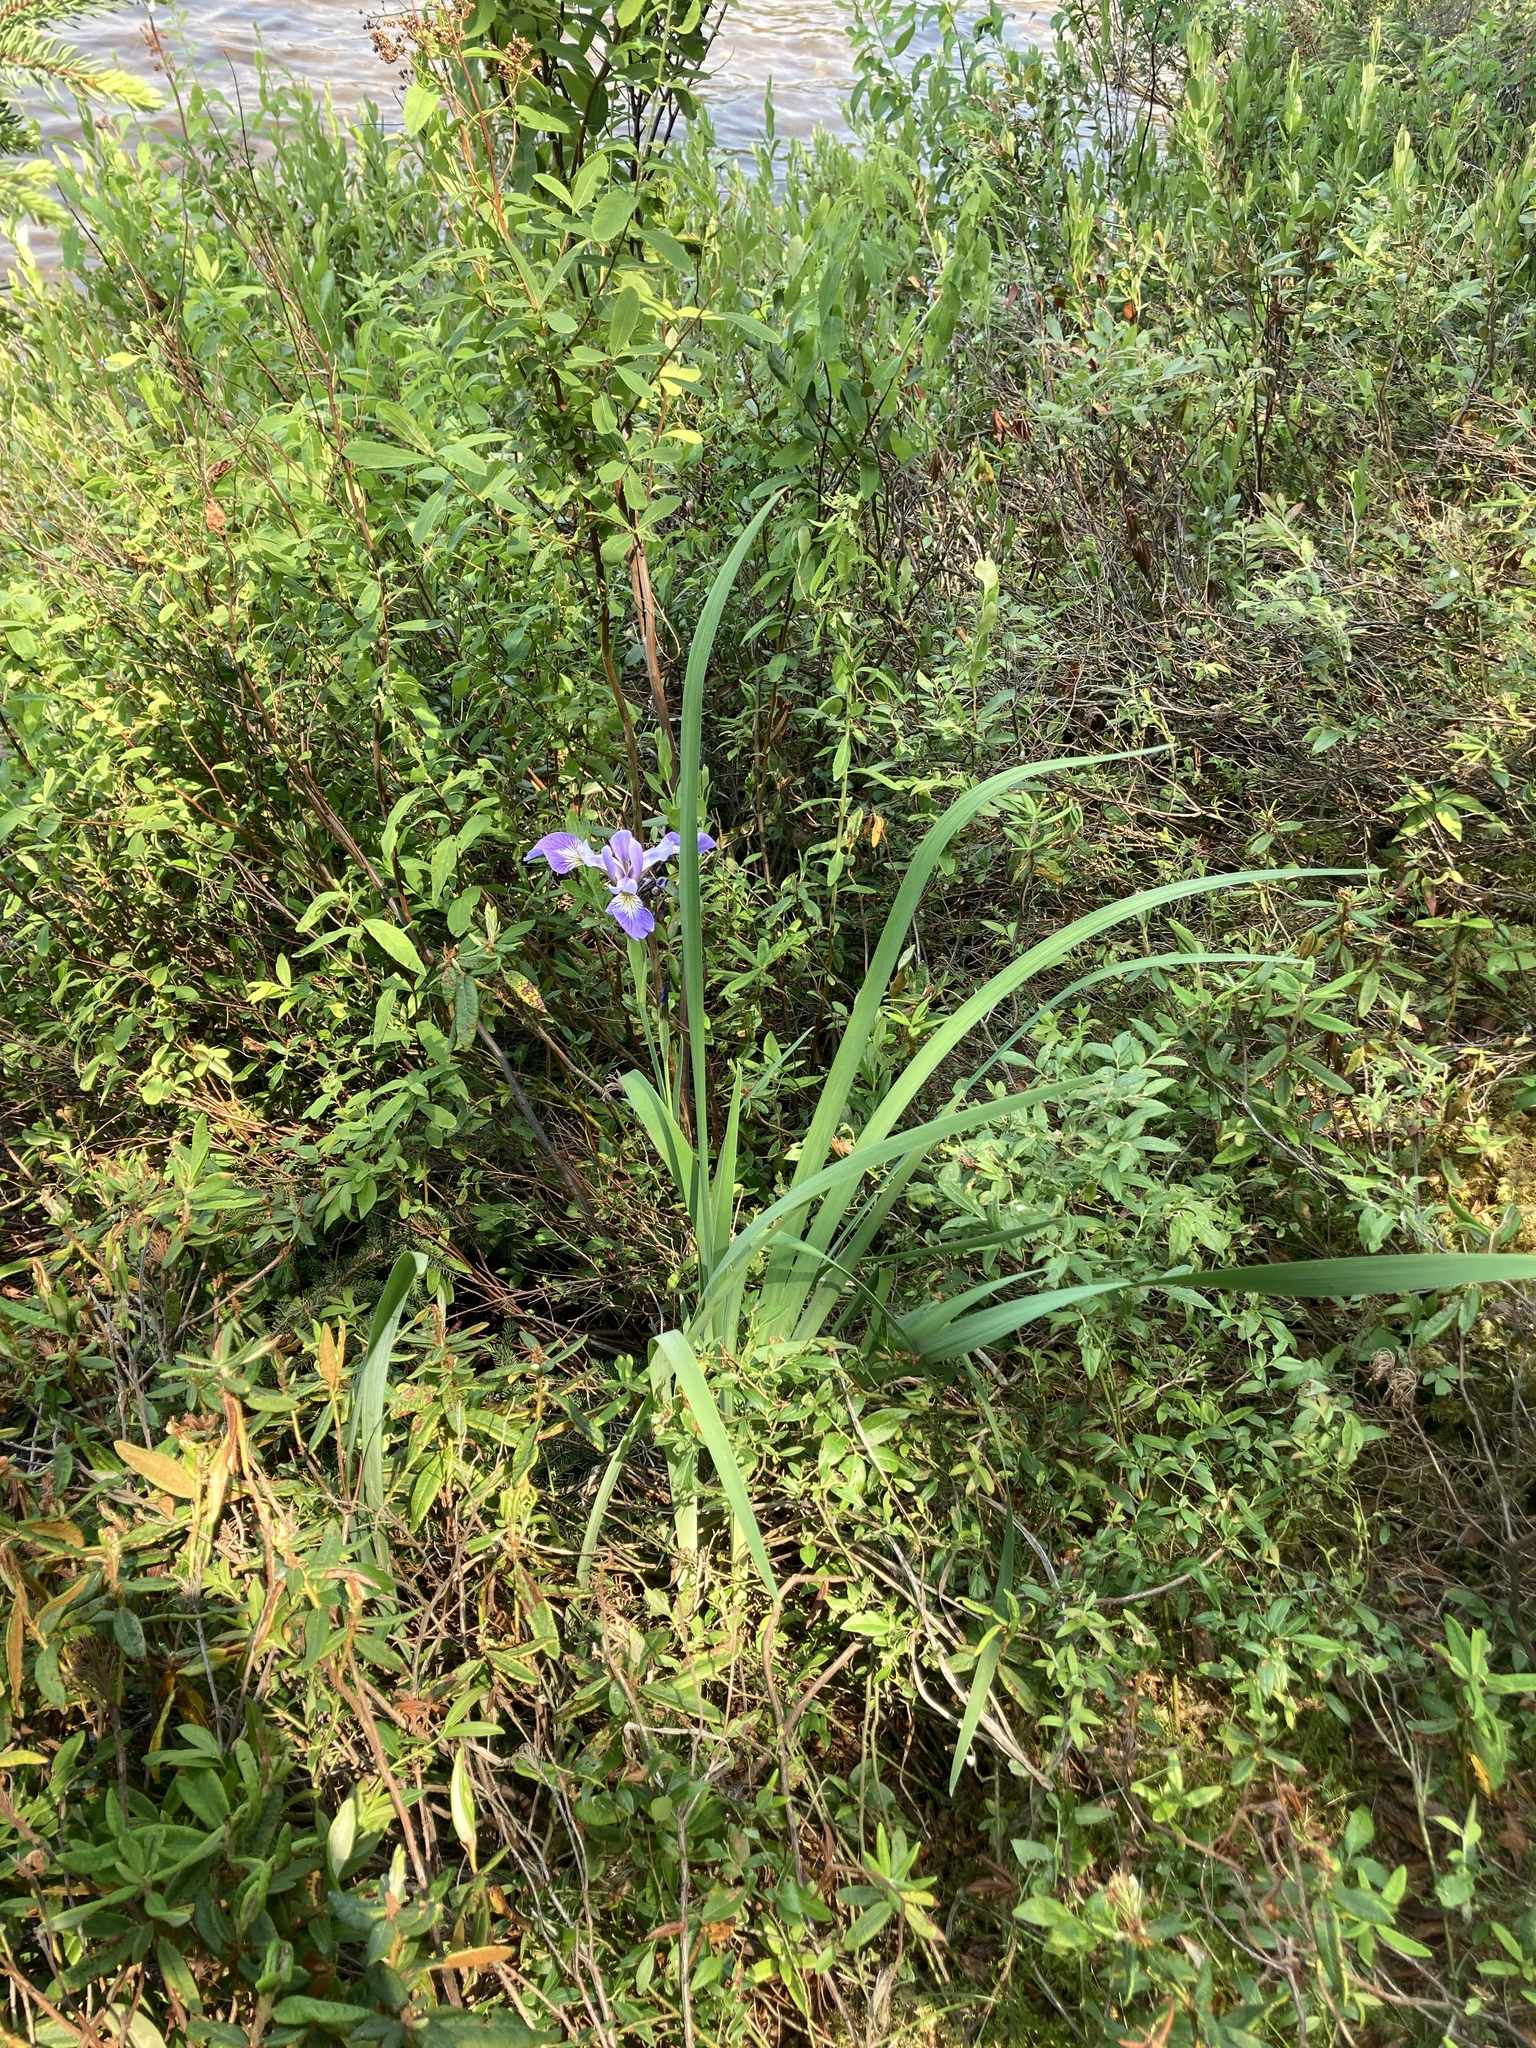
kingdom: Plantae
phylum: Tracheophyta
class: Liliopsida
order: Asparagales
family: Iridaceae
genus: Iris
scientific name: Iris versicolor
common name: Purple iris
